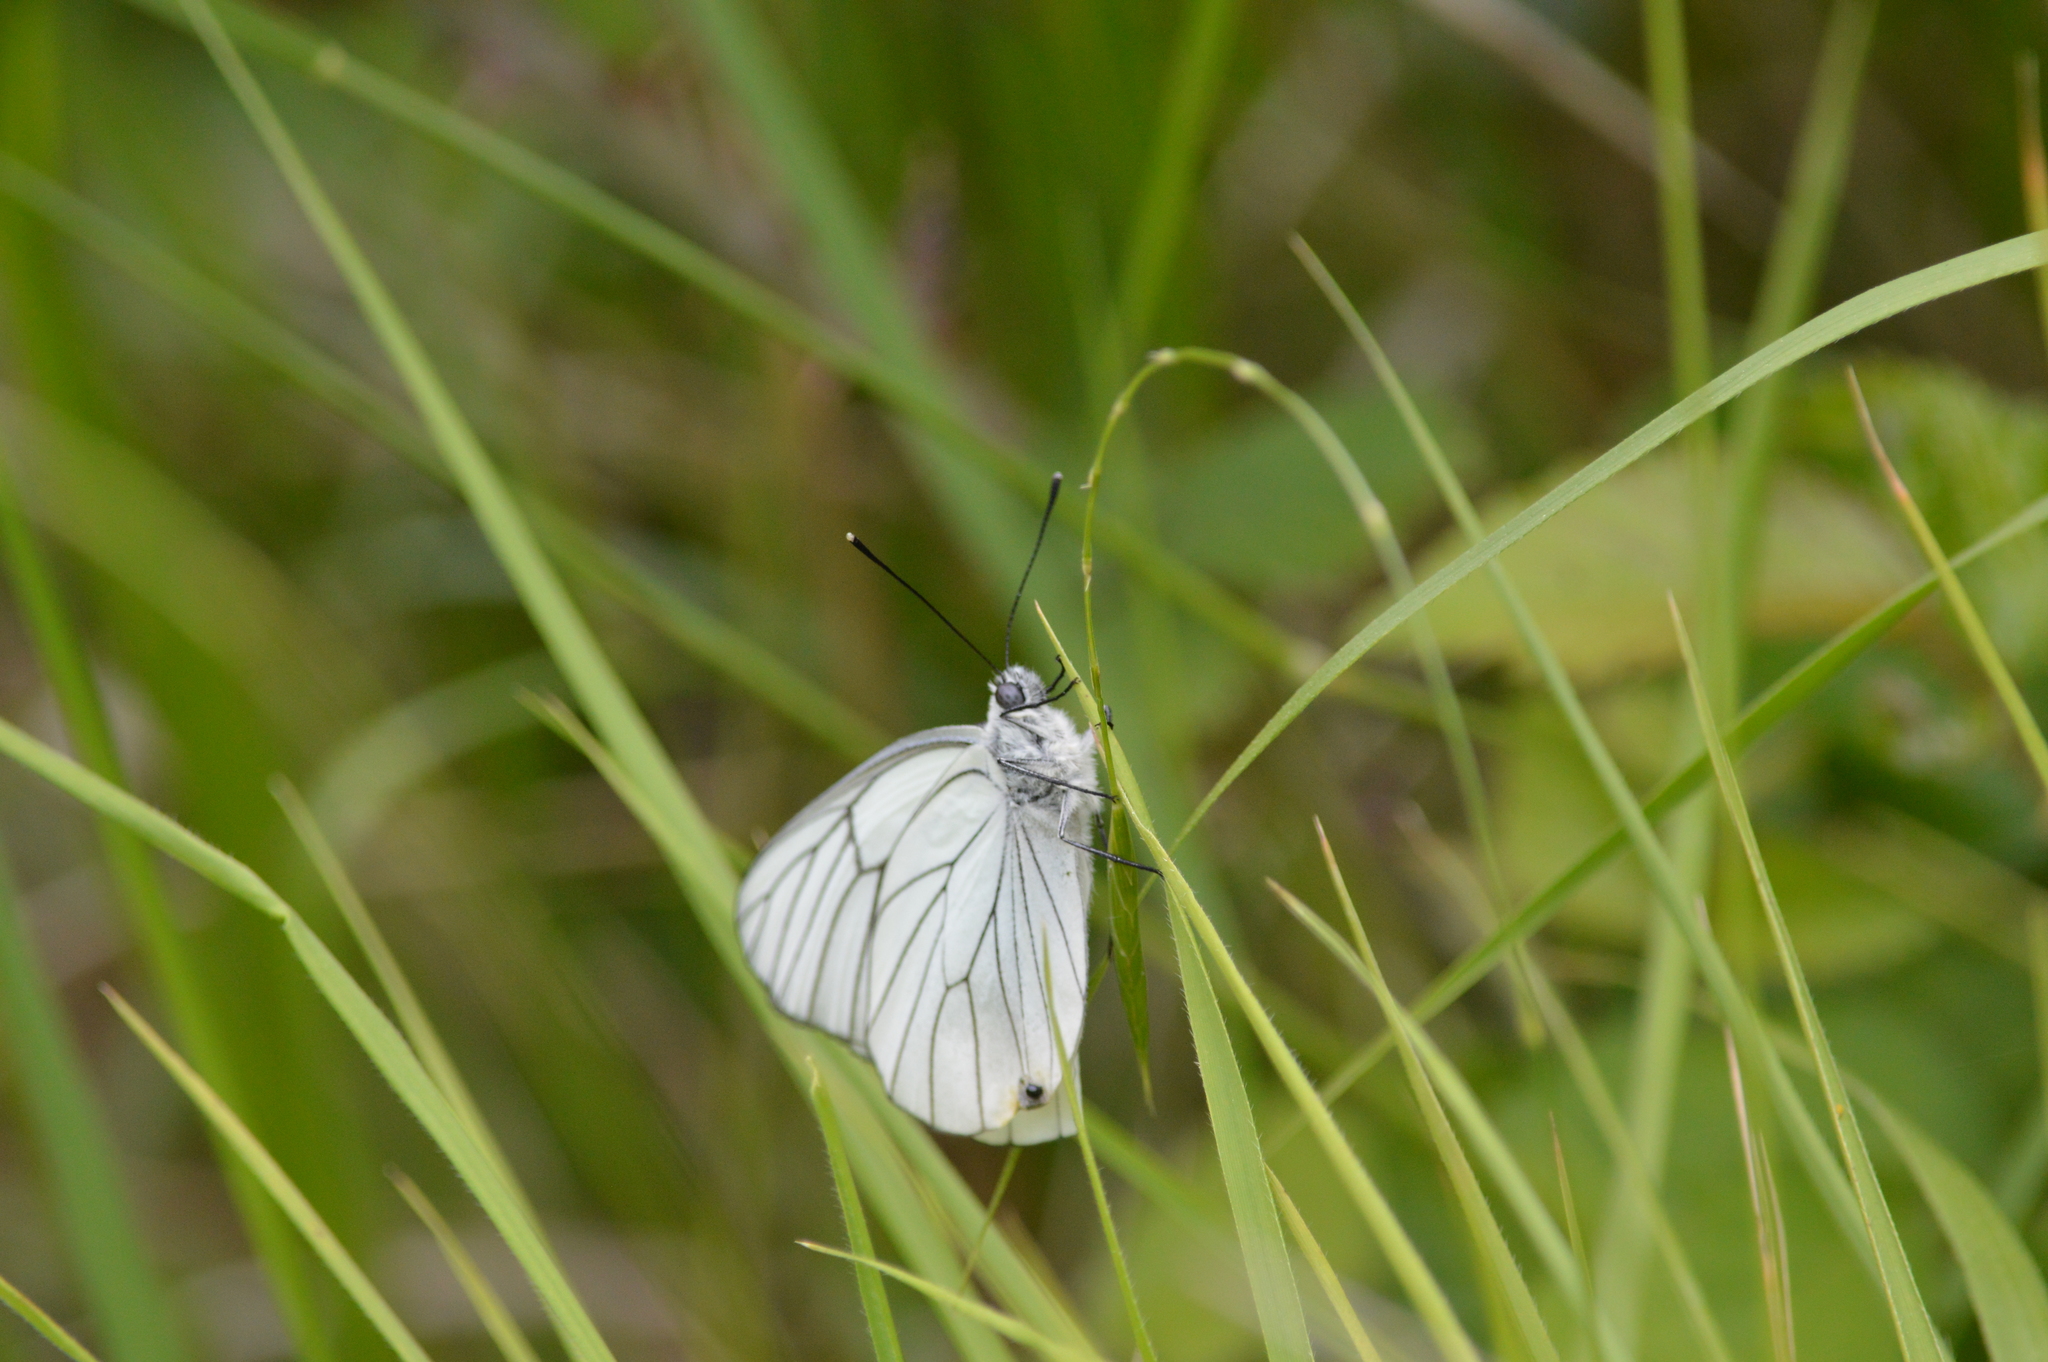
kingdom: Animalia
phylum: Arthropoda
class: Insecta
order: Lepidoptera
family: Pieridae
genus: Aporia
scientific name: Aporia crataegi
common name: Black-veined white
